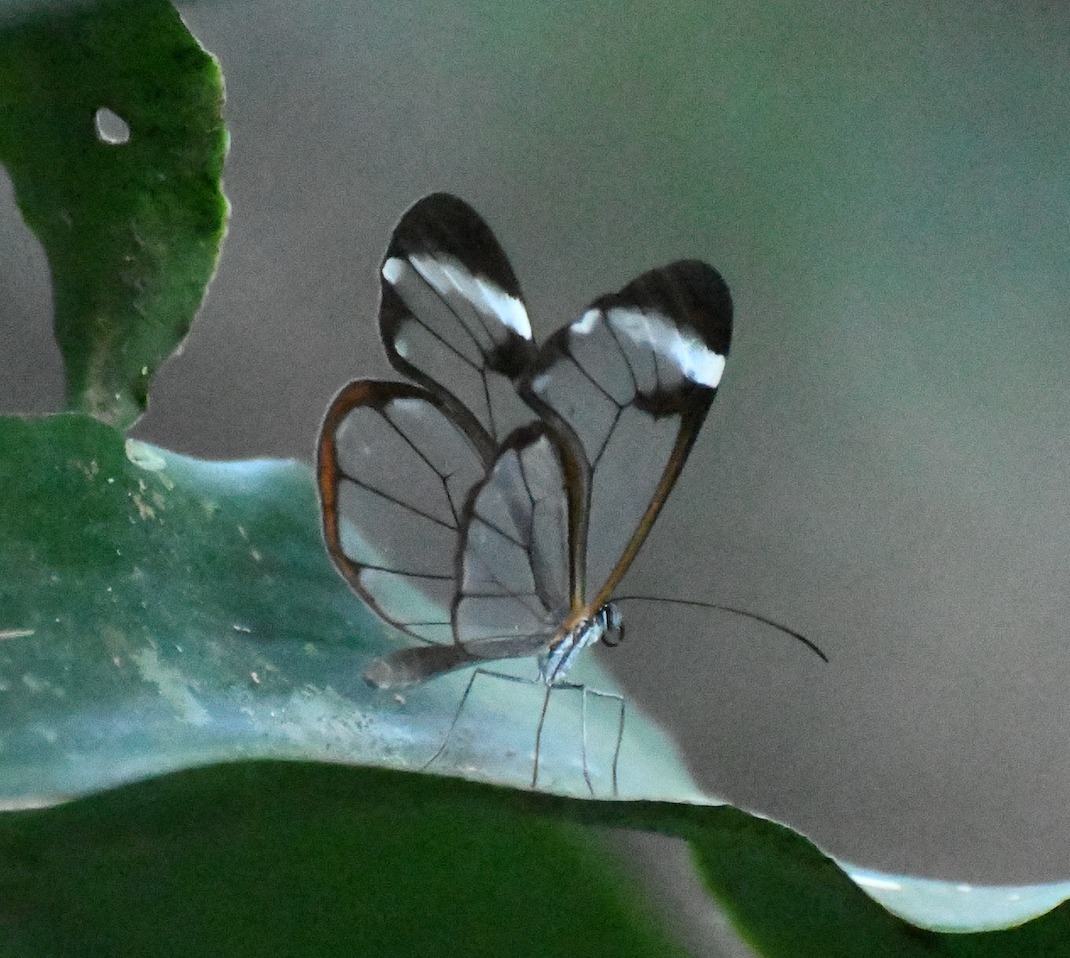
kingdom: Animalia
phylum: Arthropoda
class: Insecta
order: Lepidoptera
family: Nymphalidae
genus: Greta
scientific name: Greta morgane
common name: Thick-tipped greta
